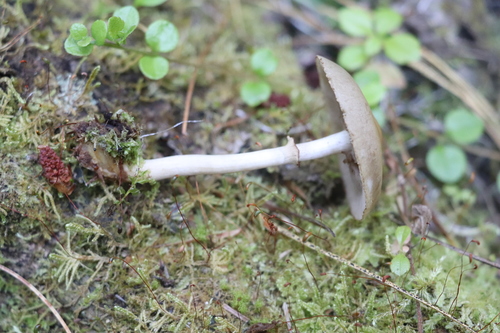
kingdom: Fungi
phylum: Basidiomycota
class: Agaricomycetes
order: Agaricales
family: Strophariaceae
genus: Agrocybe
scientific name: Agrocybe praecox
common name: Spring fieldcap
